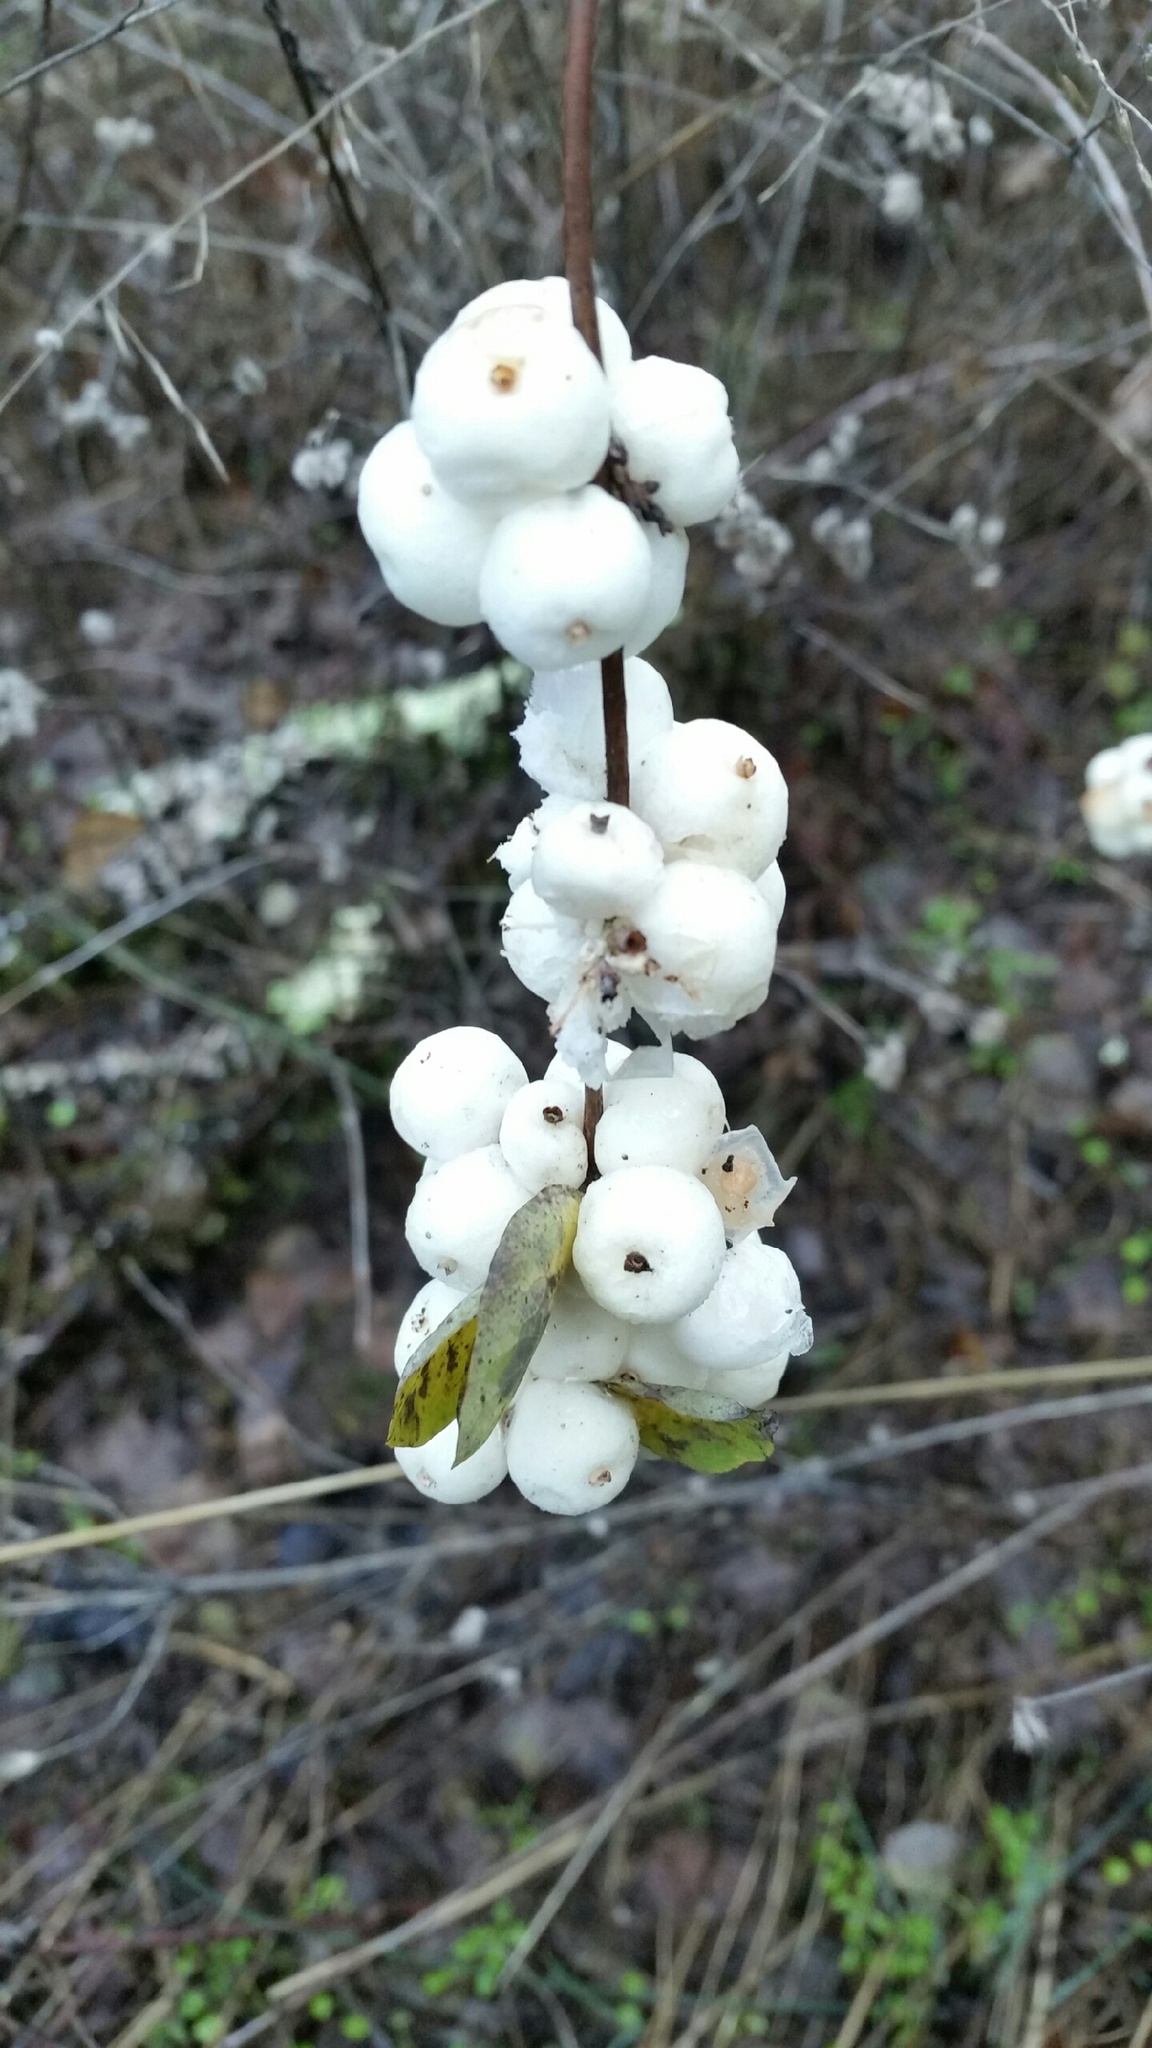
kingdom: Plantae
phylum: Tracheophyta
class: Magnoliopsida
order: Dipsacales
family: Caprifoliaceae
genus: Symphoricarpos
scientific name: Symphoricarpos albus
